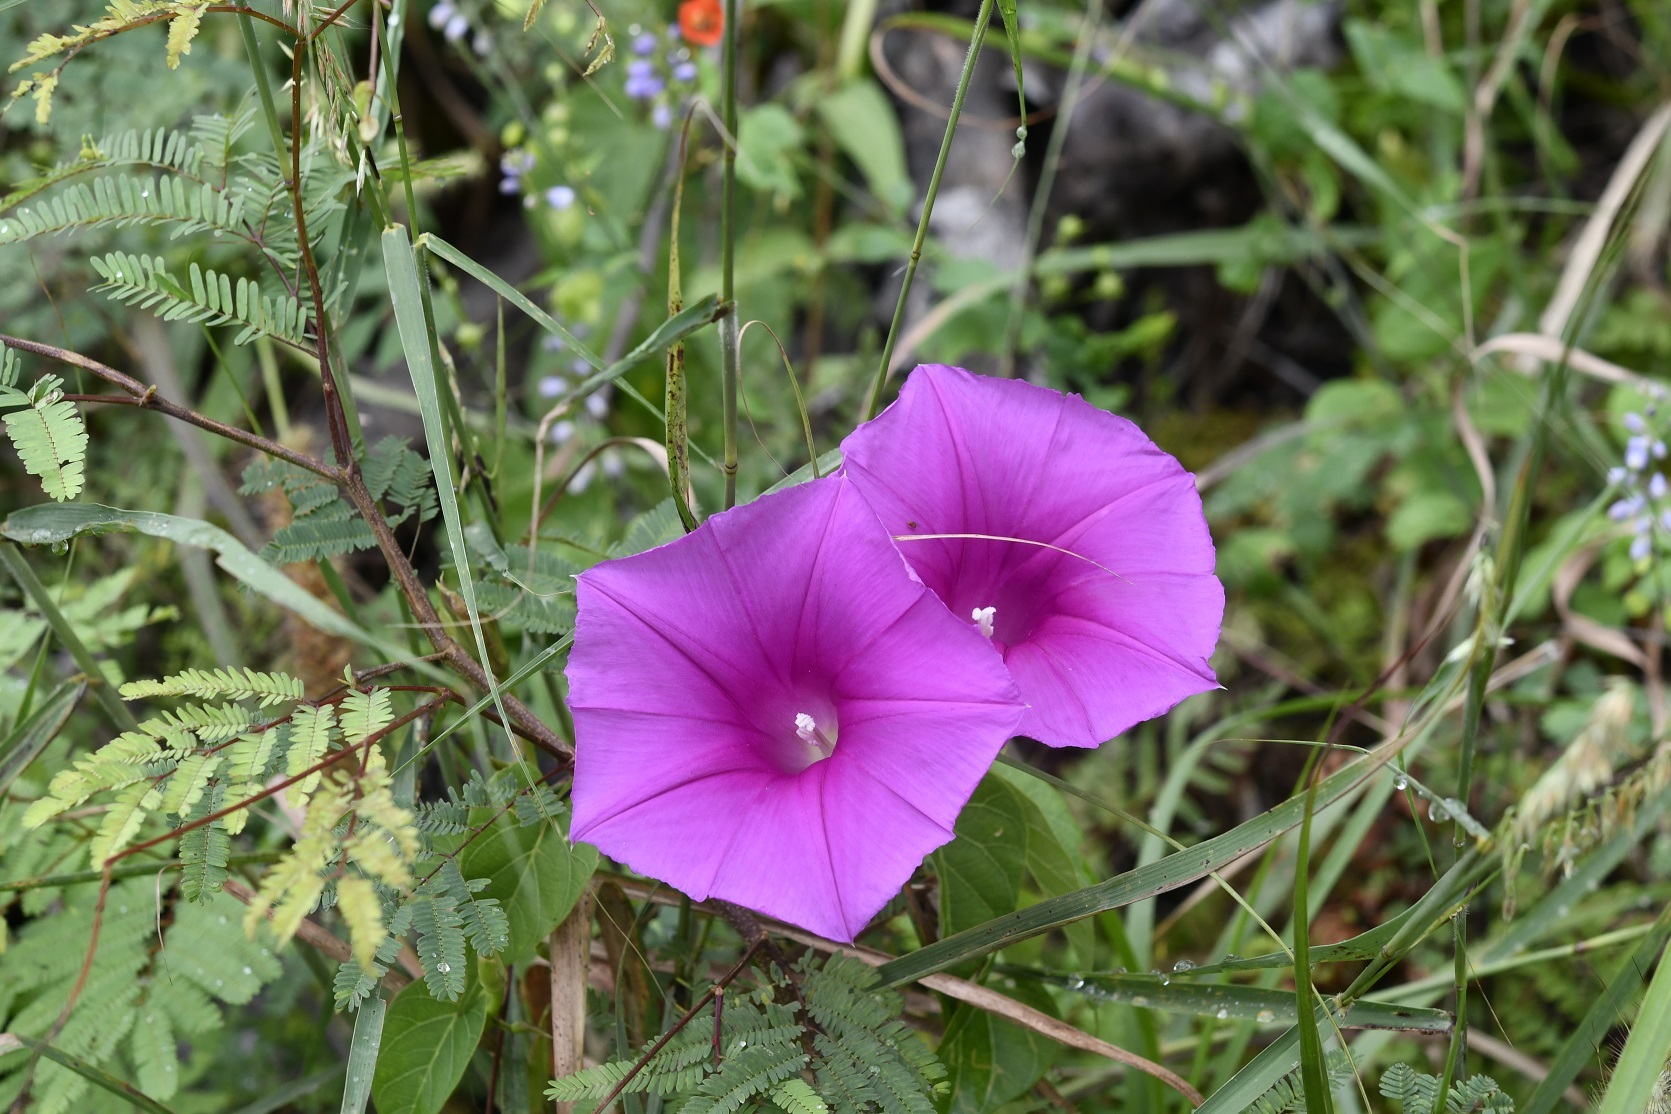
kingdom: Plantae
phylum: Tracheophyta
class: Magnoliopsida
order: Solanales
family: Convolvulaceae
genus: Ipomoea
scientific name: Ipomoea bernoulliana
